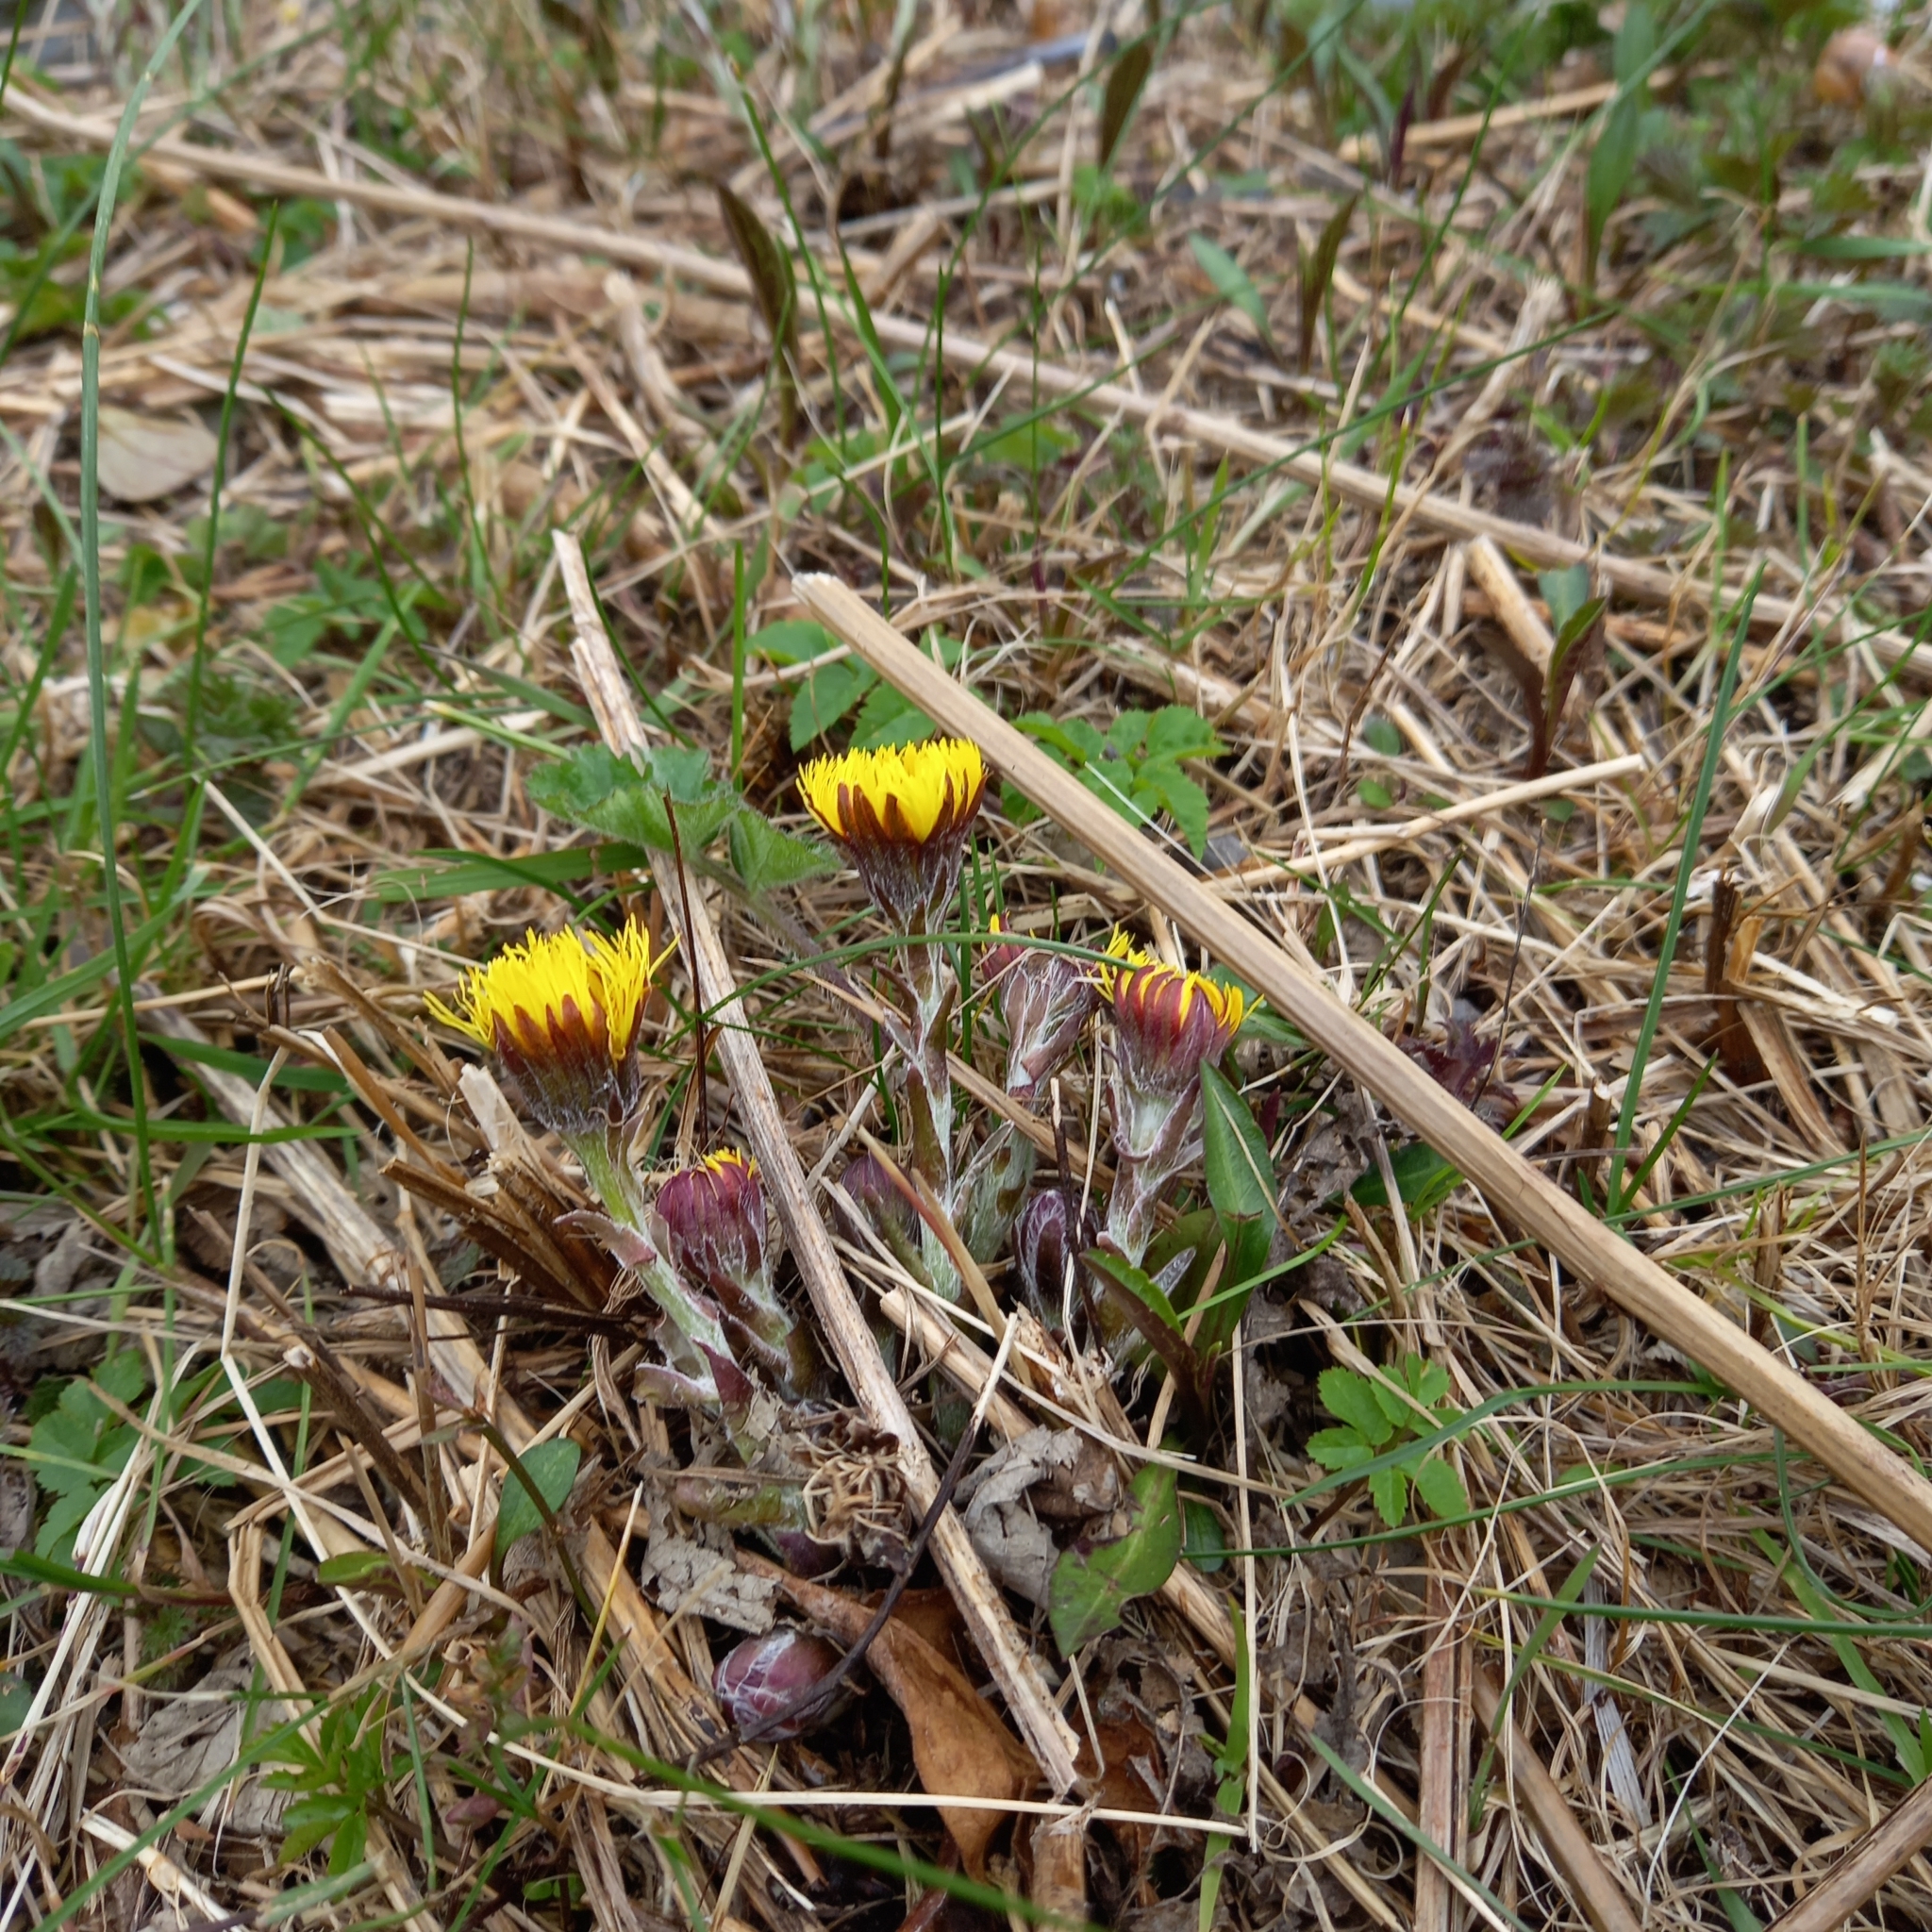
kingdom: Plantae
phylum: Tracheophyta
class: Magnoliopsida
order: Asterales
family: Asteraceae
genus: Tussilago
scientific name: Tussilago farfara
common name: Coltsfoot
